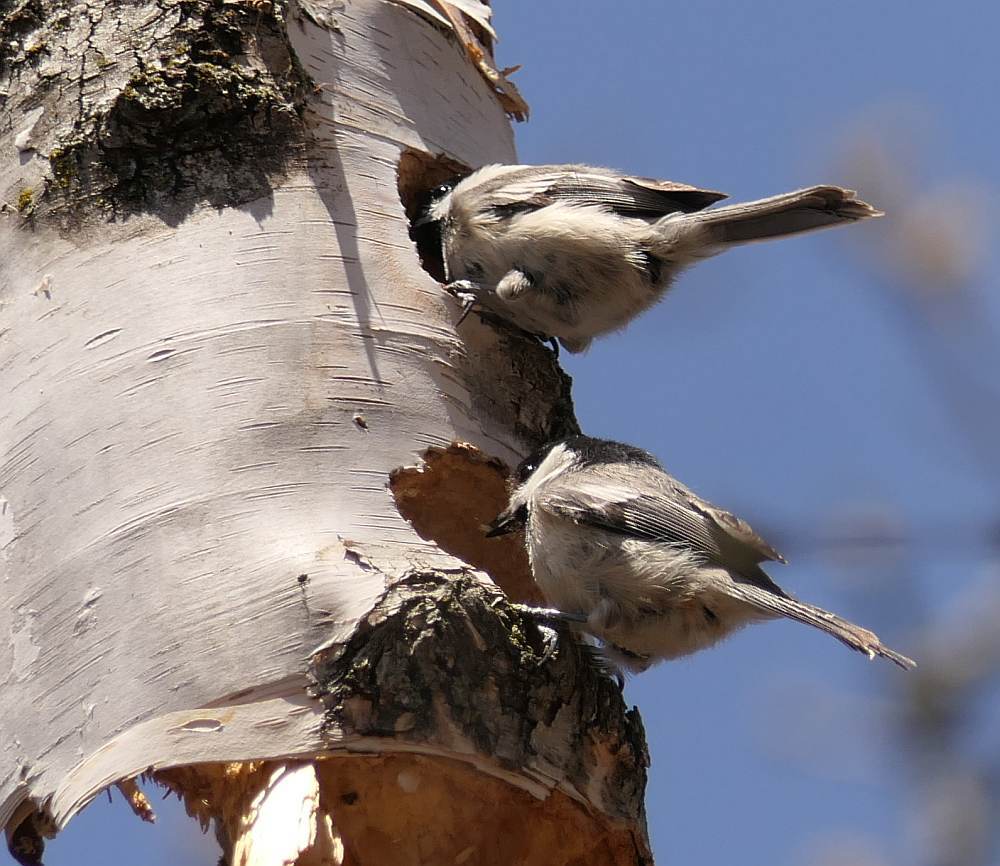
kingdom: Animalia
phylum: Chordata
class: Aves
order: Passeriformes
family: Paridae
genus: Poecile
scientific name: Poecile atricapillus
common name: Black-capped chickadee
